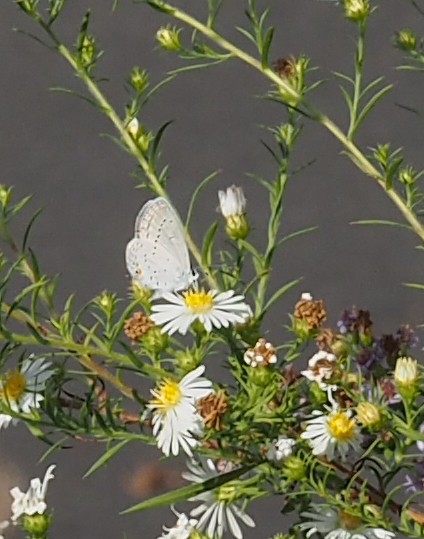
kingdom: Animalia
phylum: Arthropoda
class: Insecta
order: Lepidoptera
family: Lycaenidae
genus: Elkalyce
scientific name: Elkalyce comyntas
